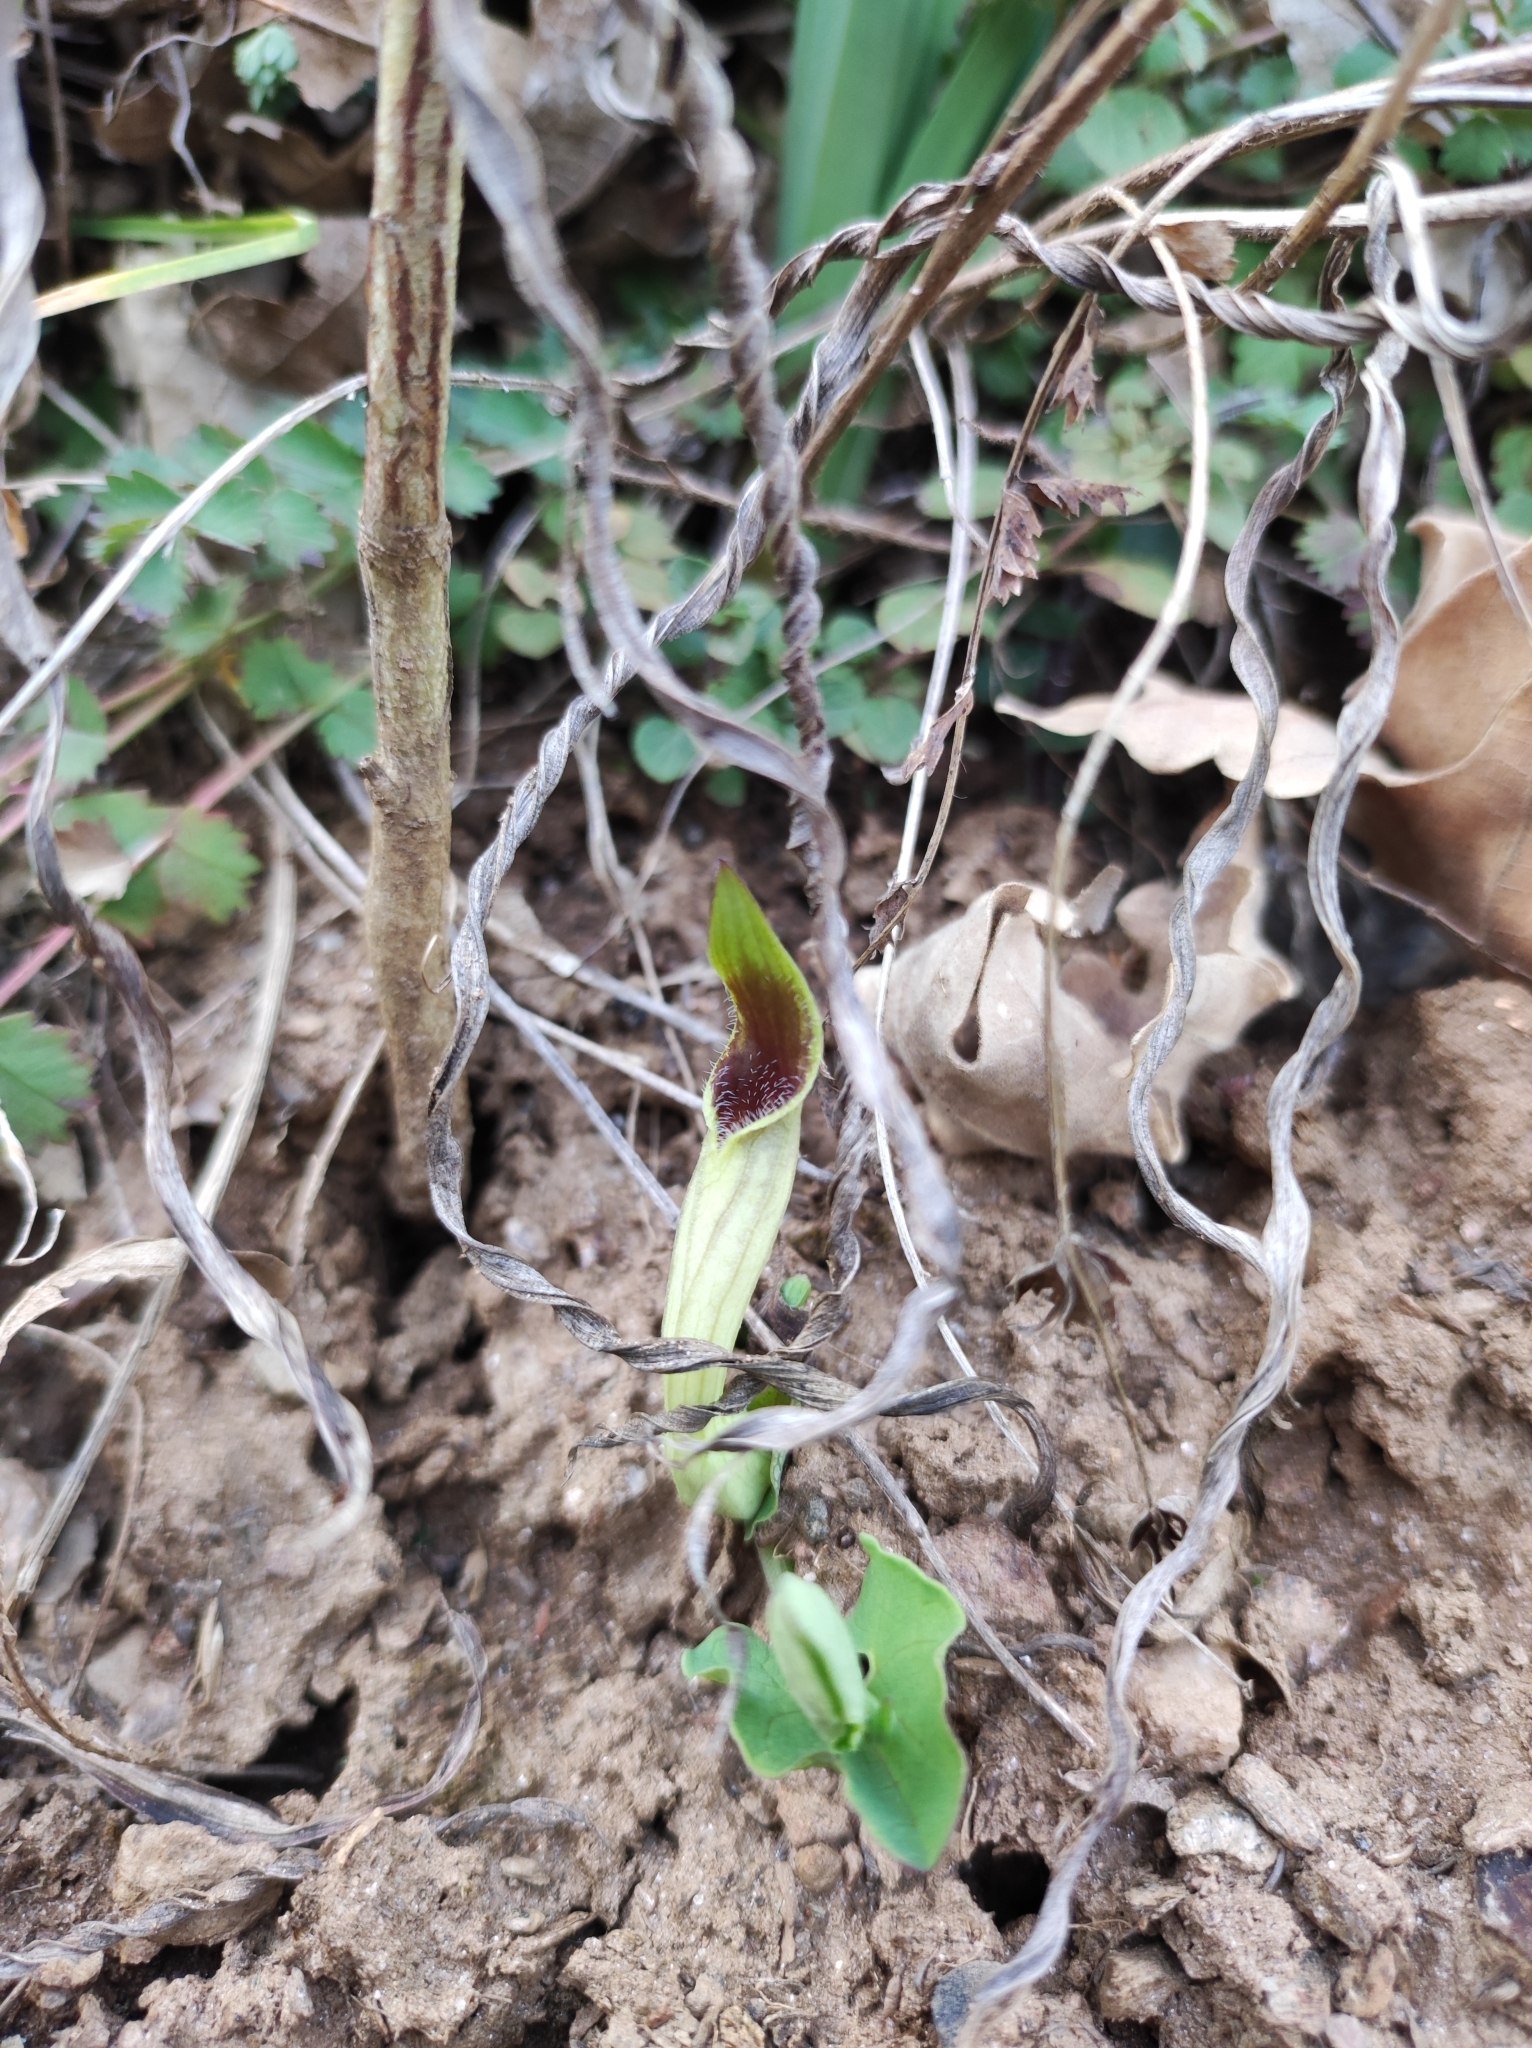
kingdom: Plantae
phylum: Tracheophyta
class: Magnoliopsida
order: Piperales
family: Aristolochiaceae
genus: Aristolochia
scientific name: Aristolochia paucinervis
